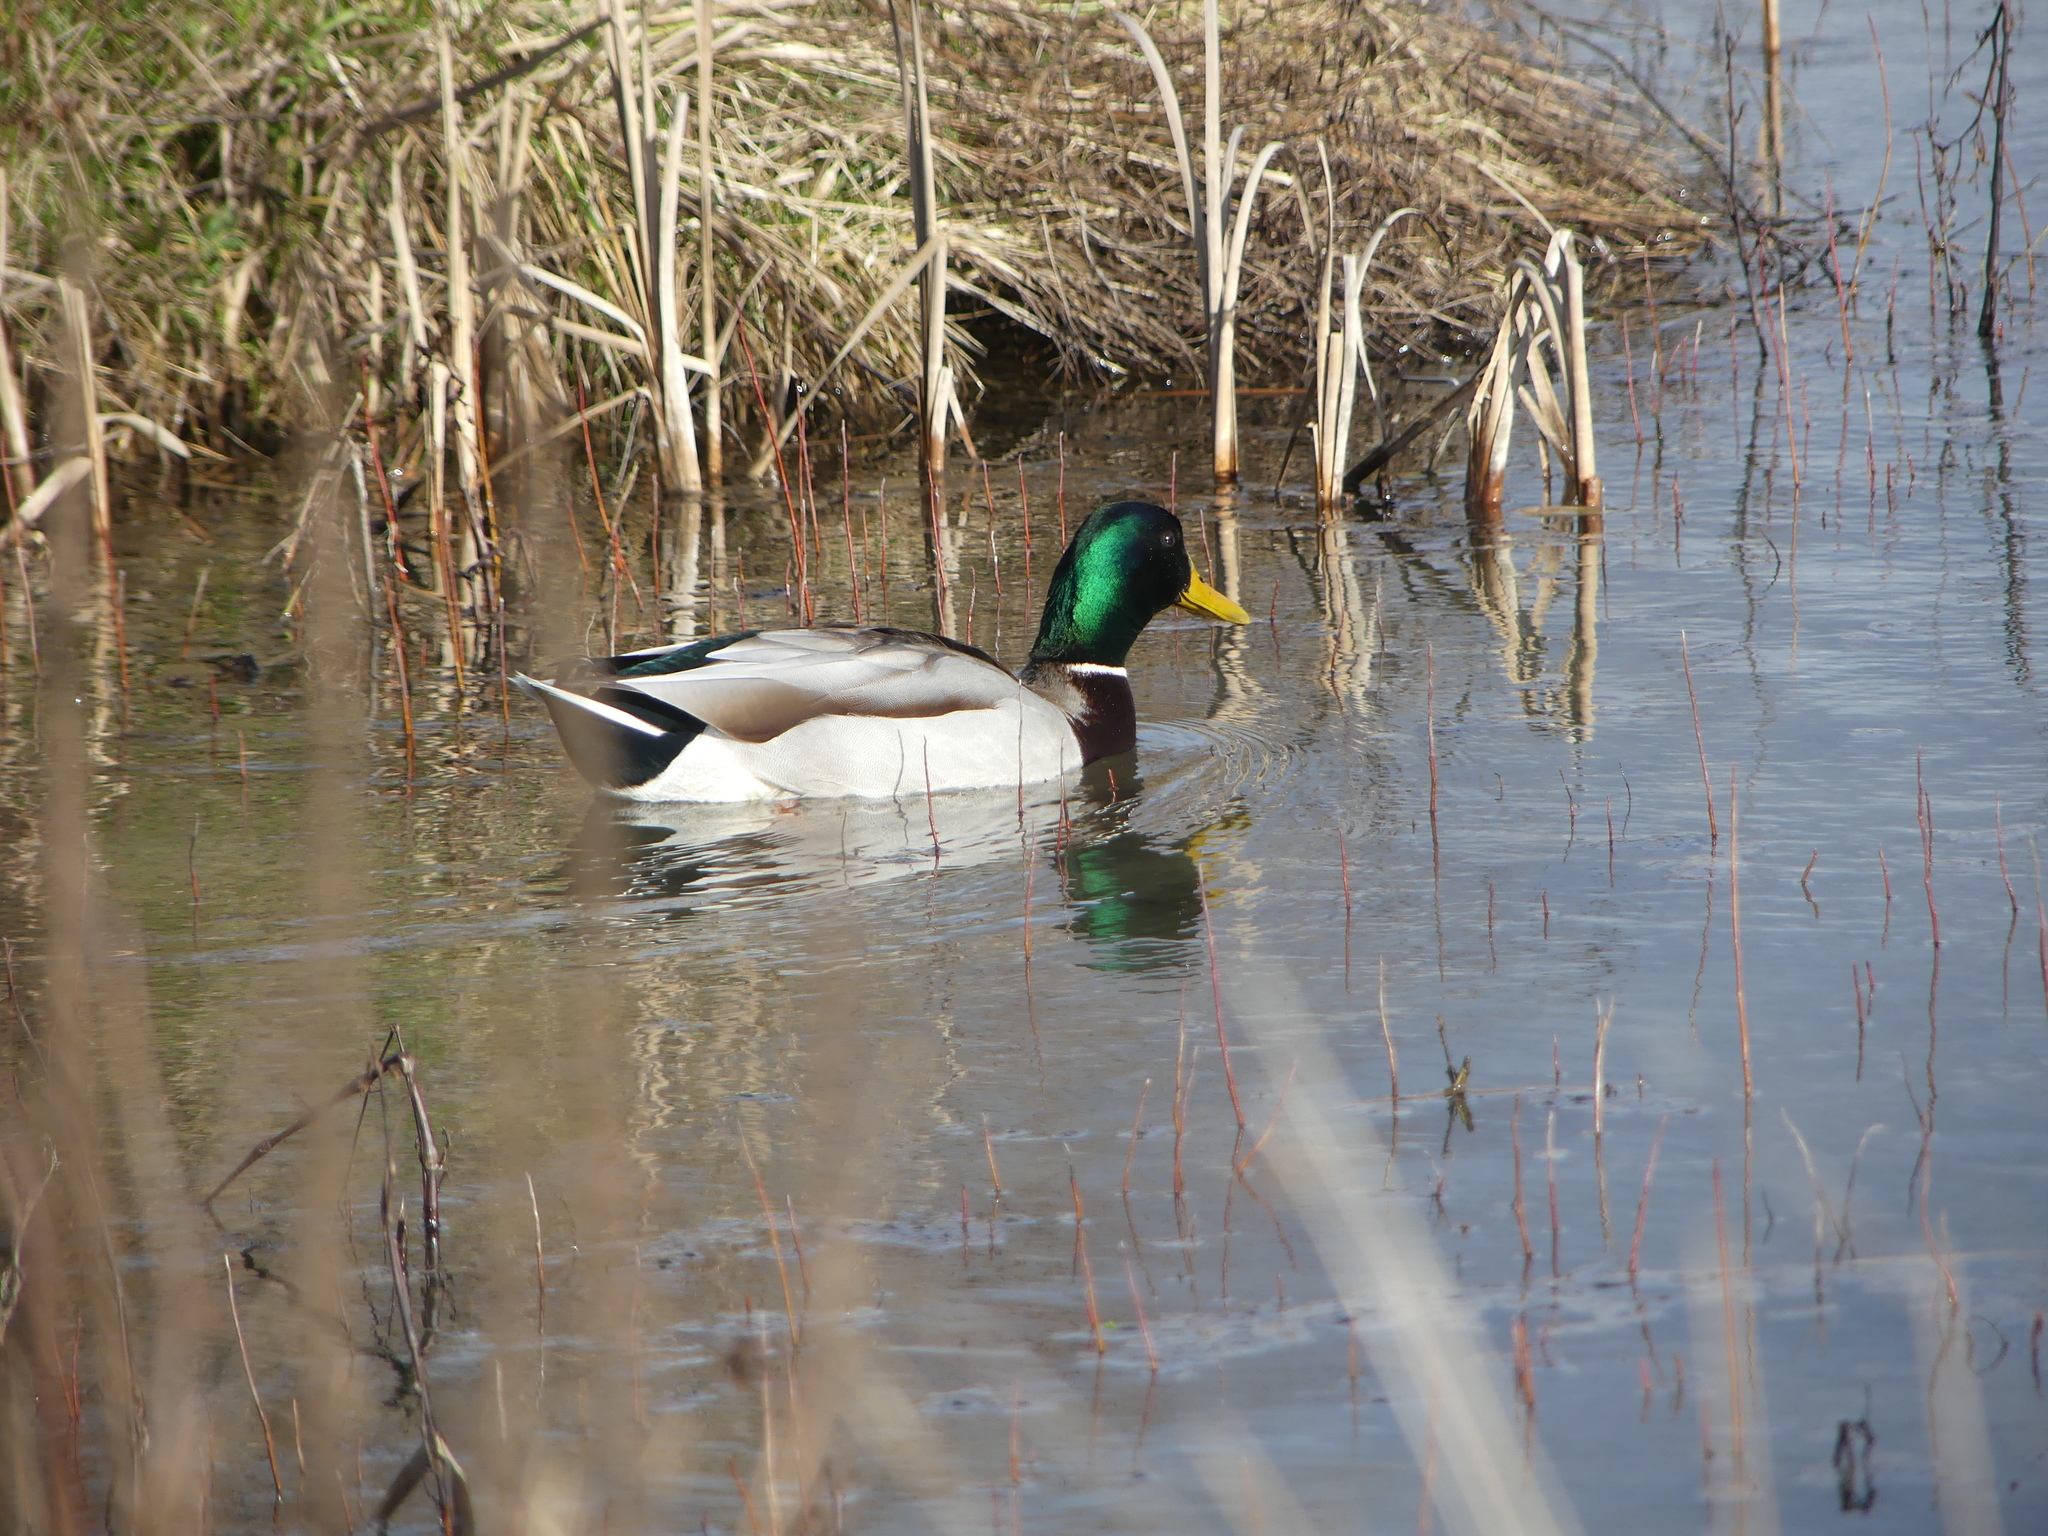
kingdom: Animalia
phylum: Chordata
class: Aves
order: Anseriformes
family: Anatidae
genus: Anas
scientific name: Anas platyrhynchos
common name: Mallard
